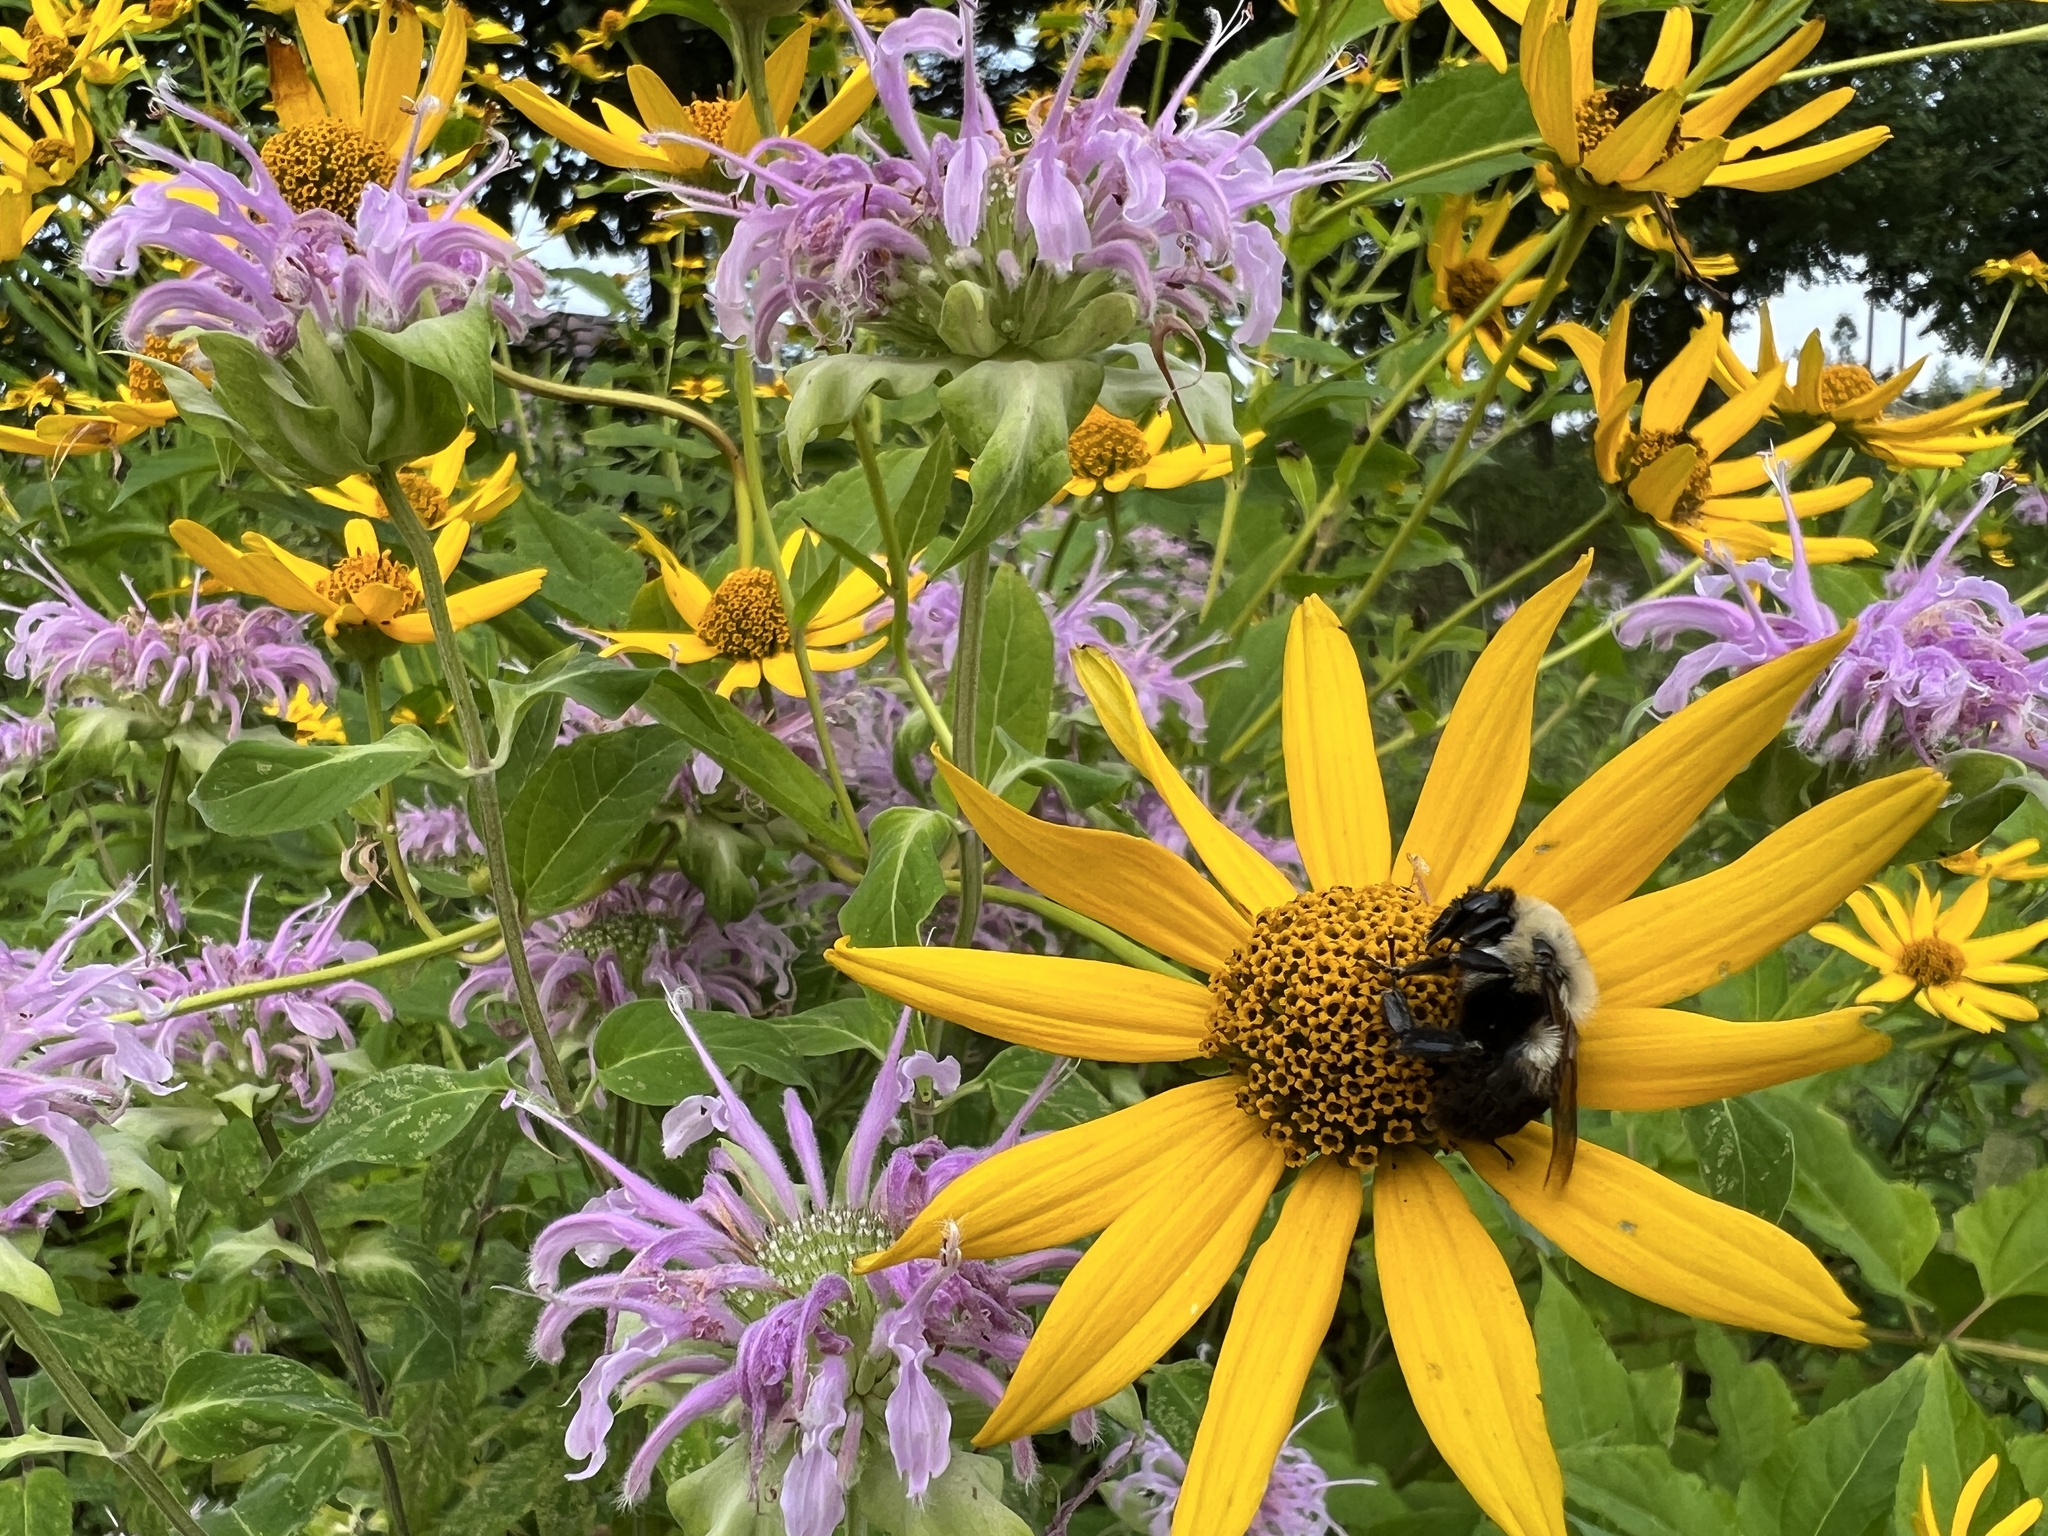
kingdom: Animalia
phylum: Arthropoda
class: Insecta
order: Hymenoptera
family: Apidae
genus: Bombus
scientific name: Bombus griseocollis
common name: Brown-belted bumble bee
